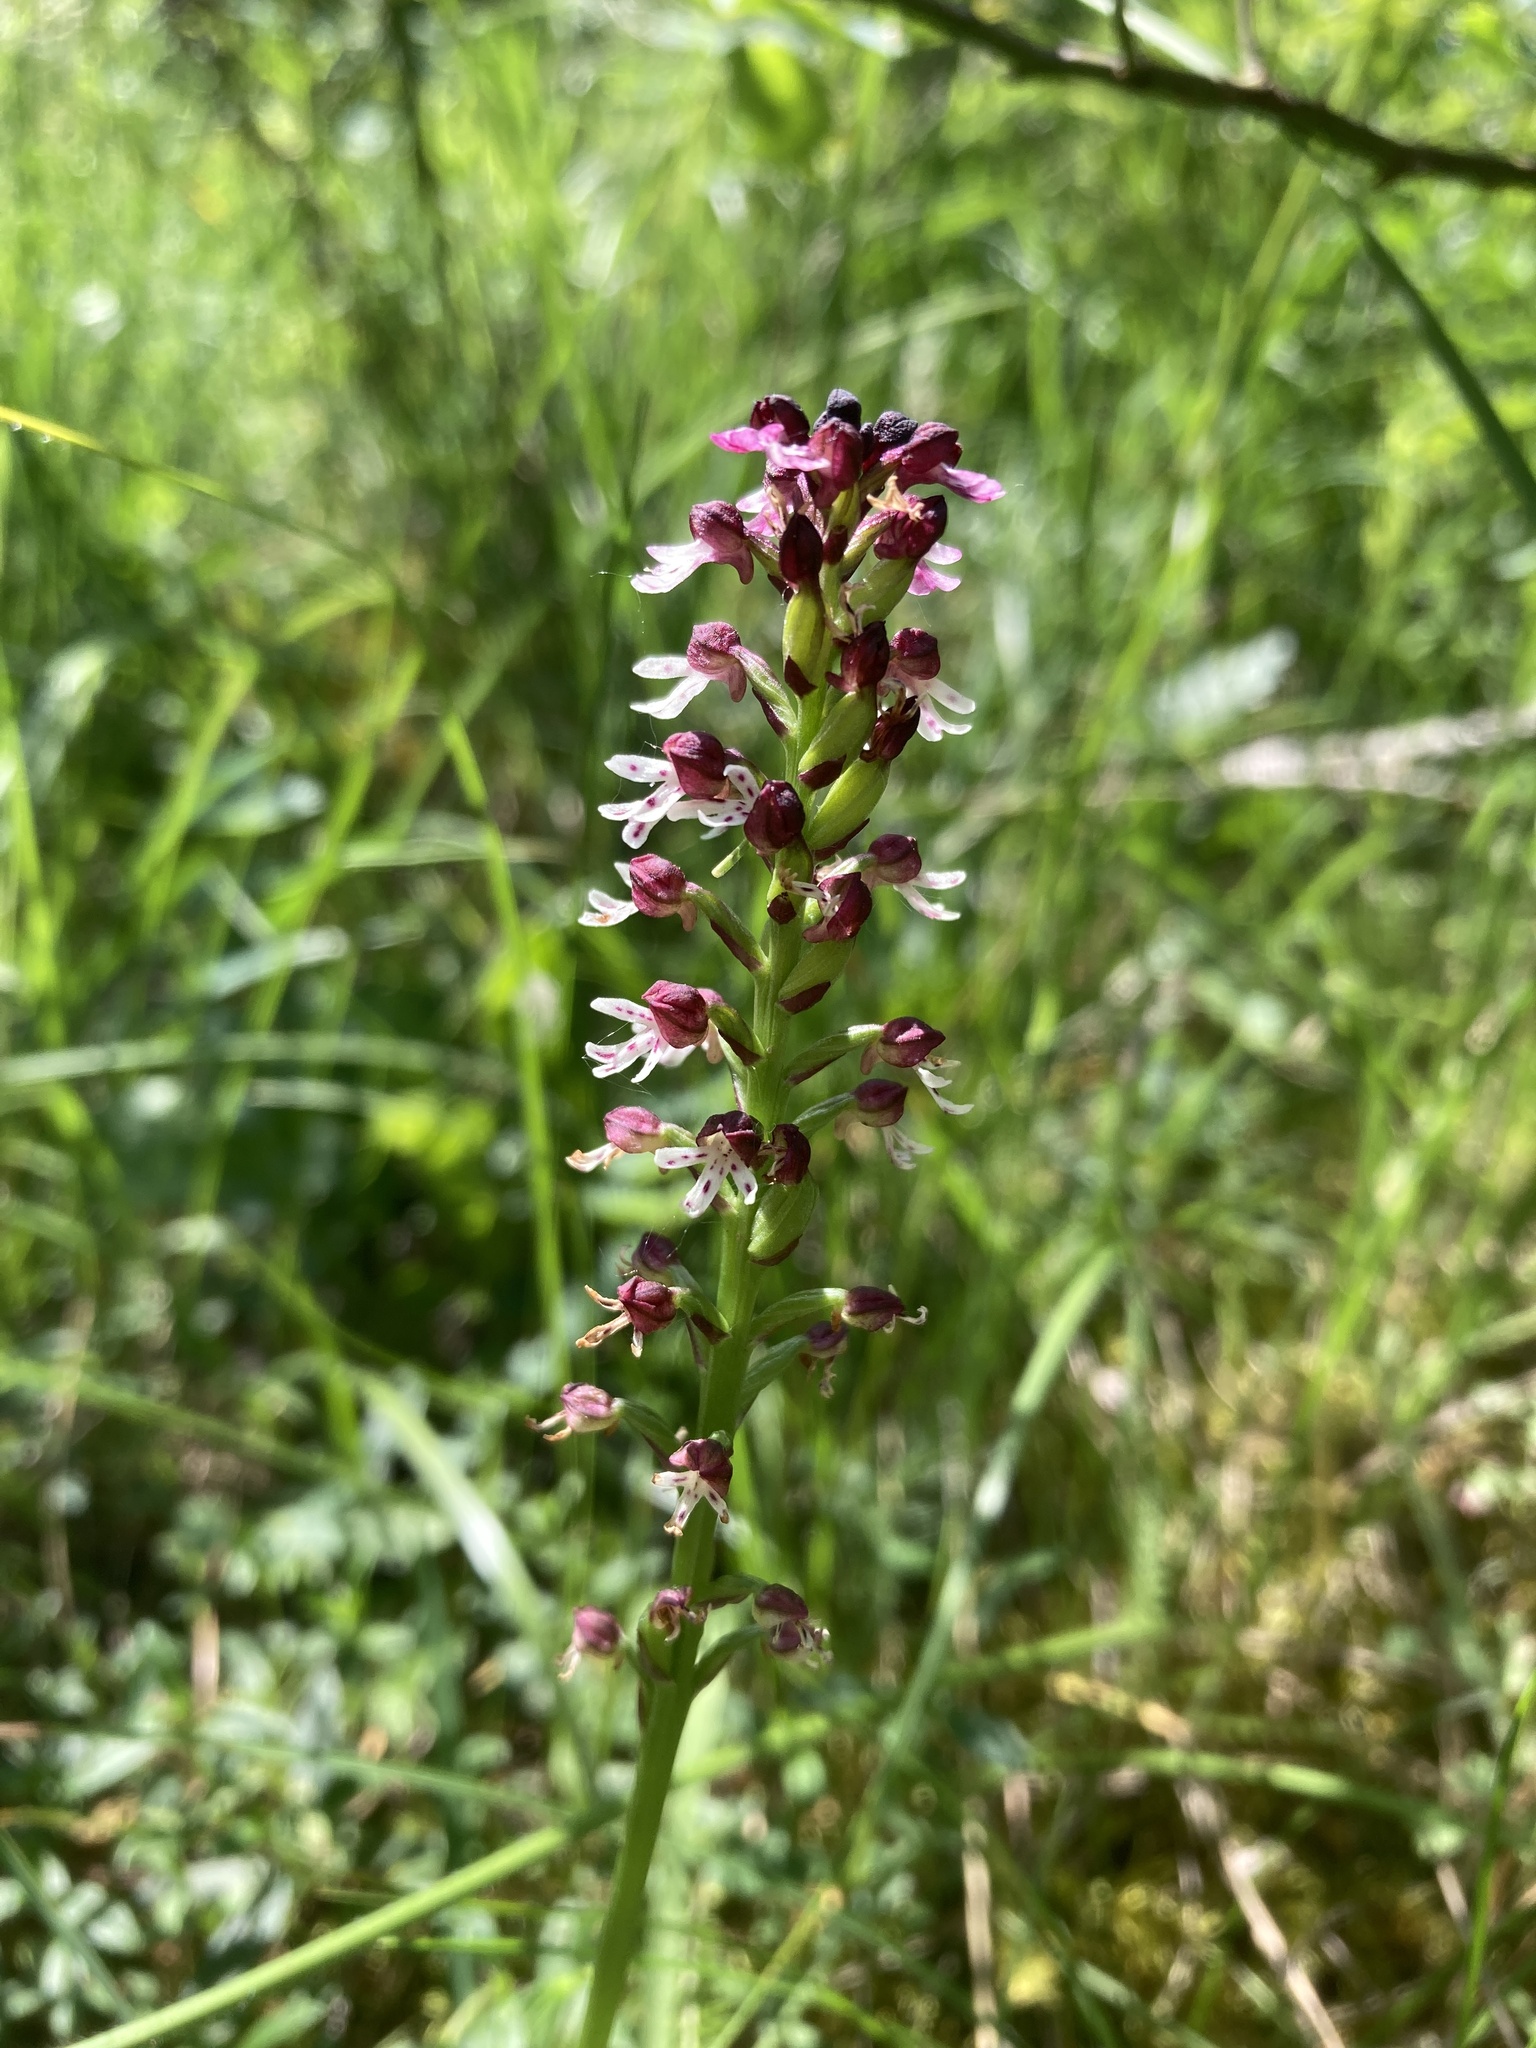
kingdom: Plantae
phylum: Tracheophyta
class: Liliopsida
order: Asparagales
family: Orchidaceae
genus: Neotinea
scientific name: Neotinea ustulata
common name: Burnt orchid
